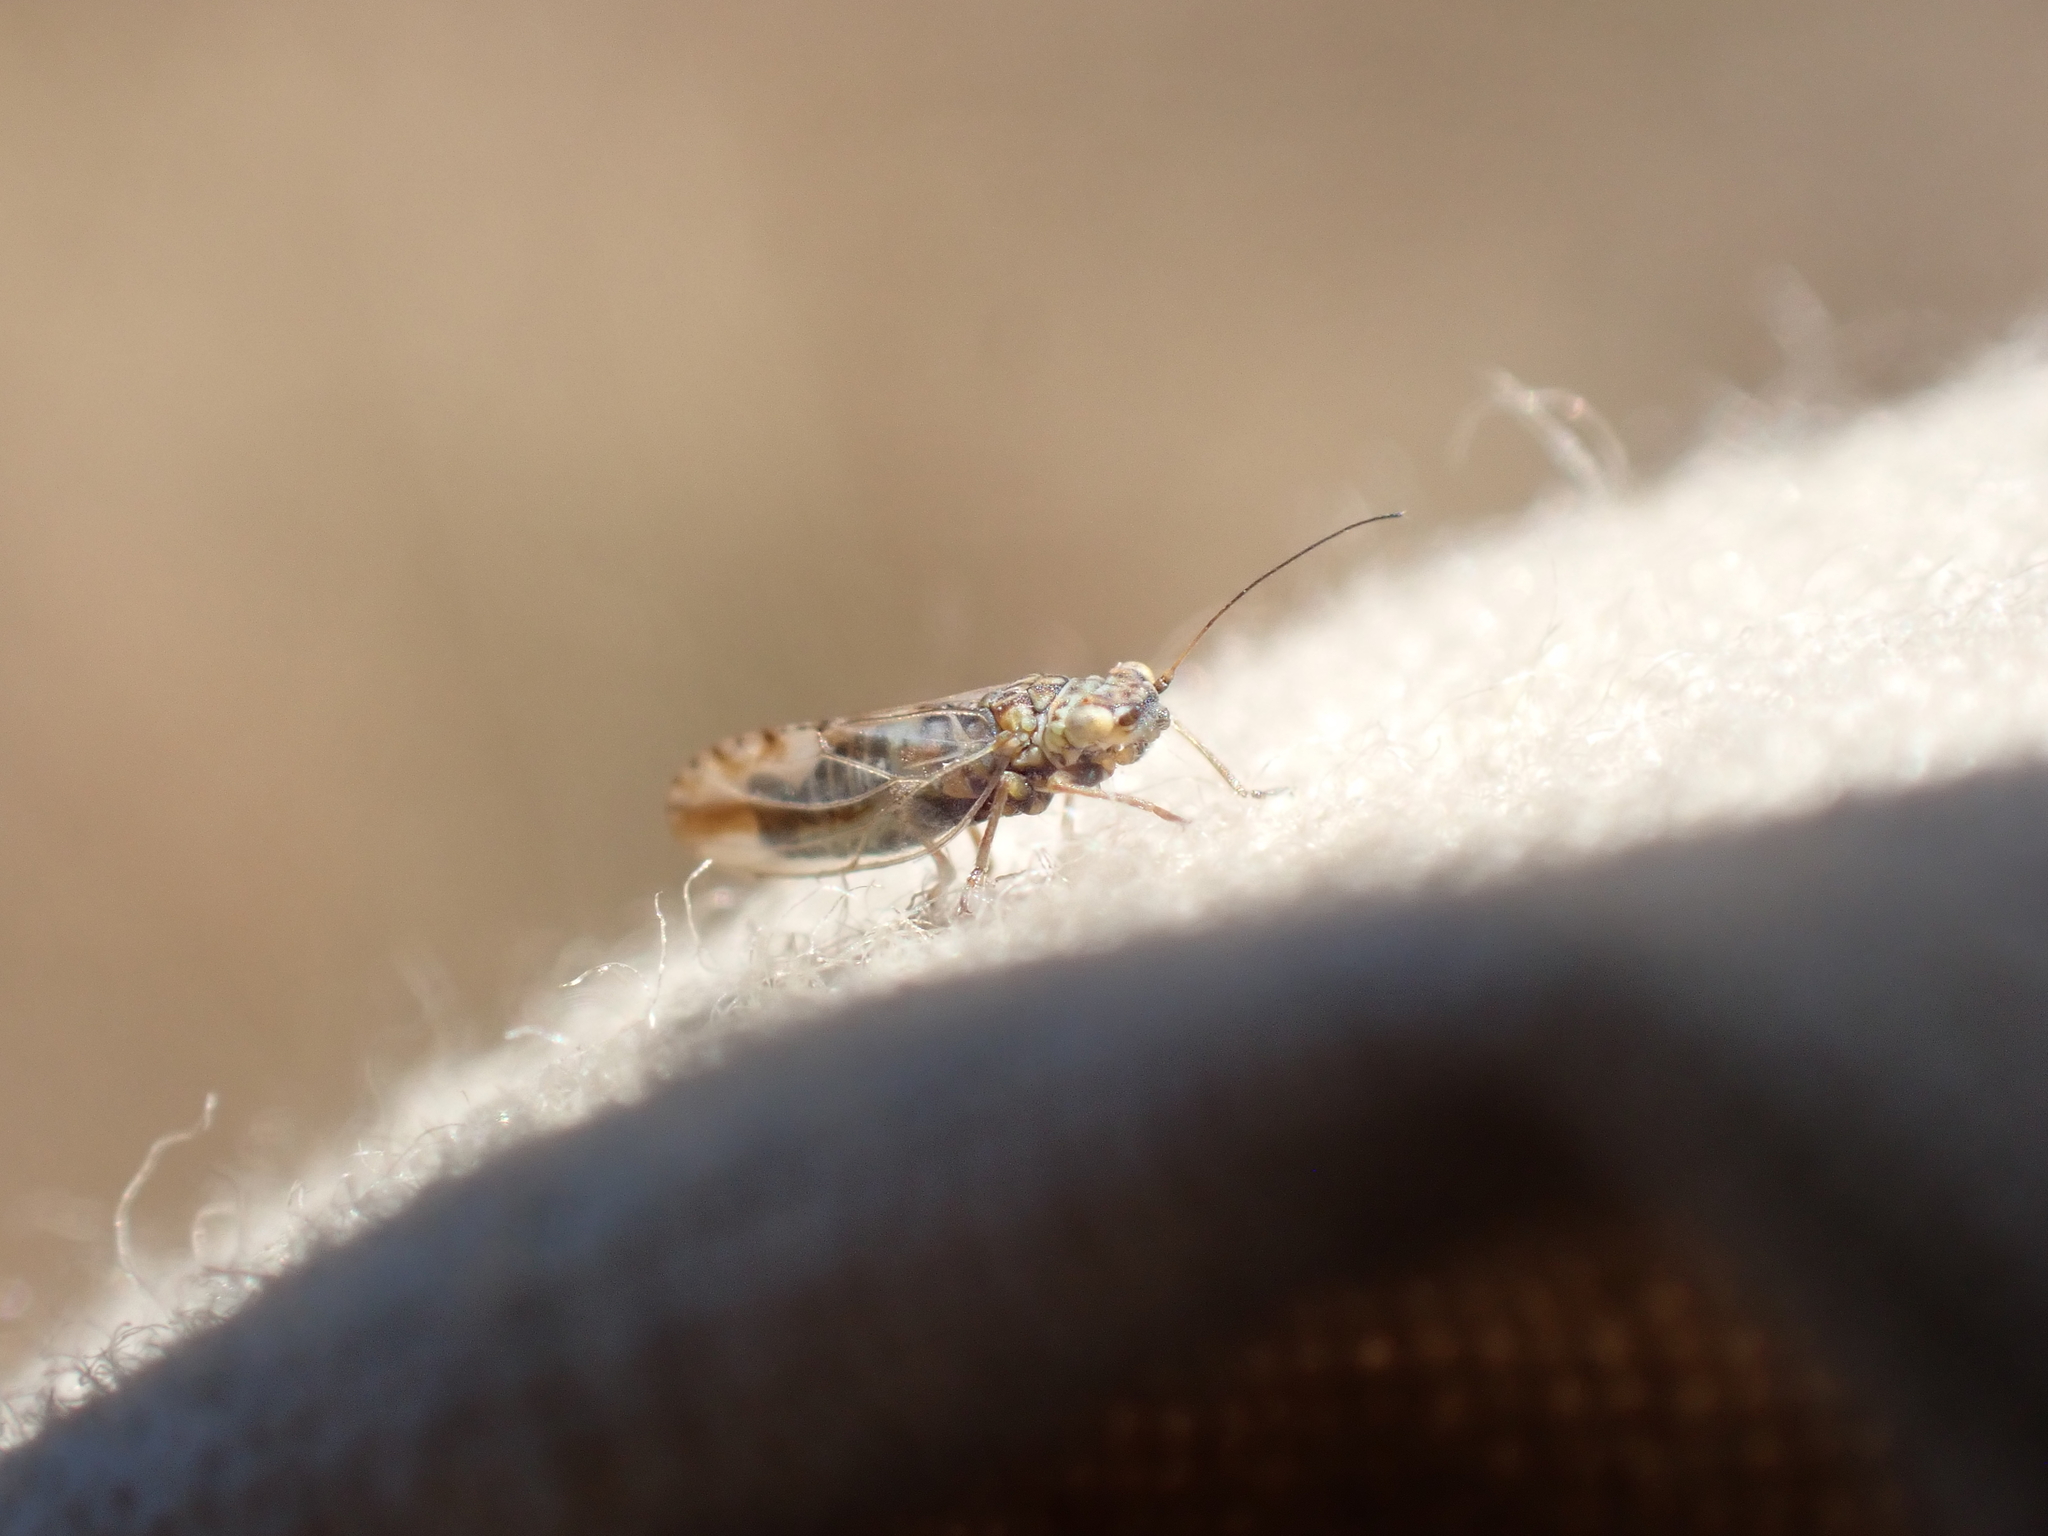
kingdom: Animalia
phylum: Arthropoda
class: Insecta
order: Hemiptera
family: Psyllidae
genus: Arytaina
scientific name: Arytaina genistae
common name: Psyllid
